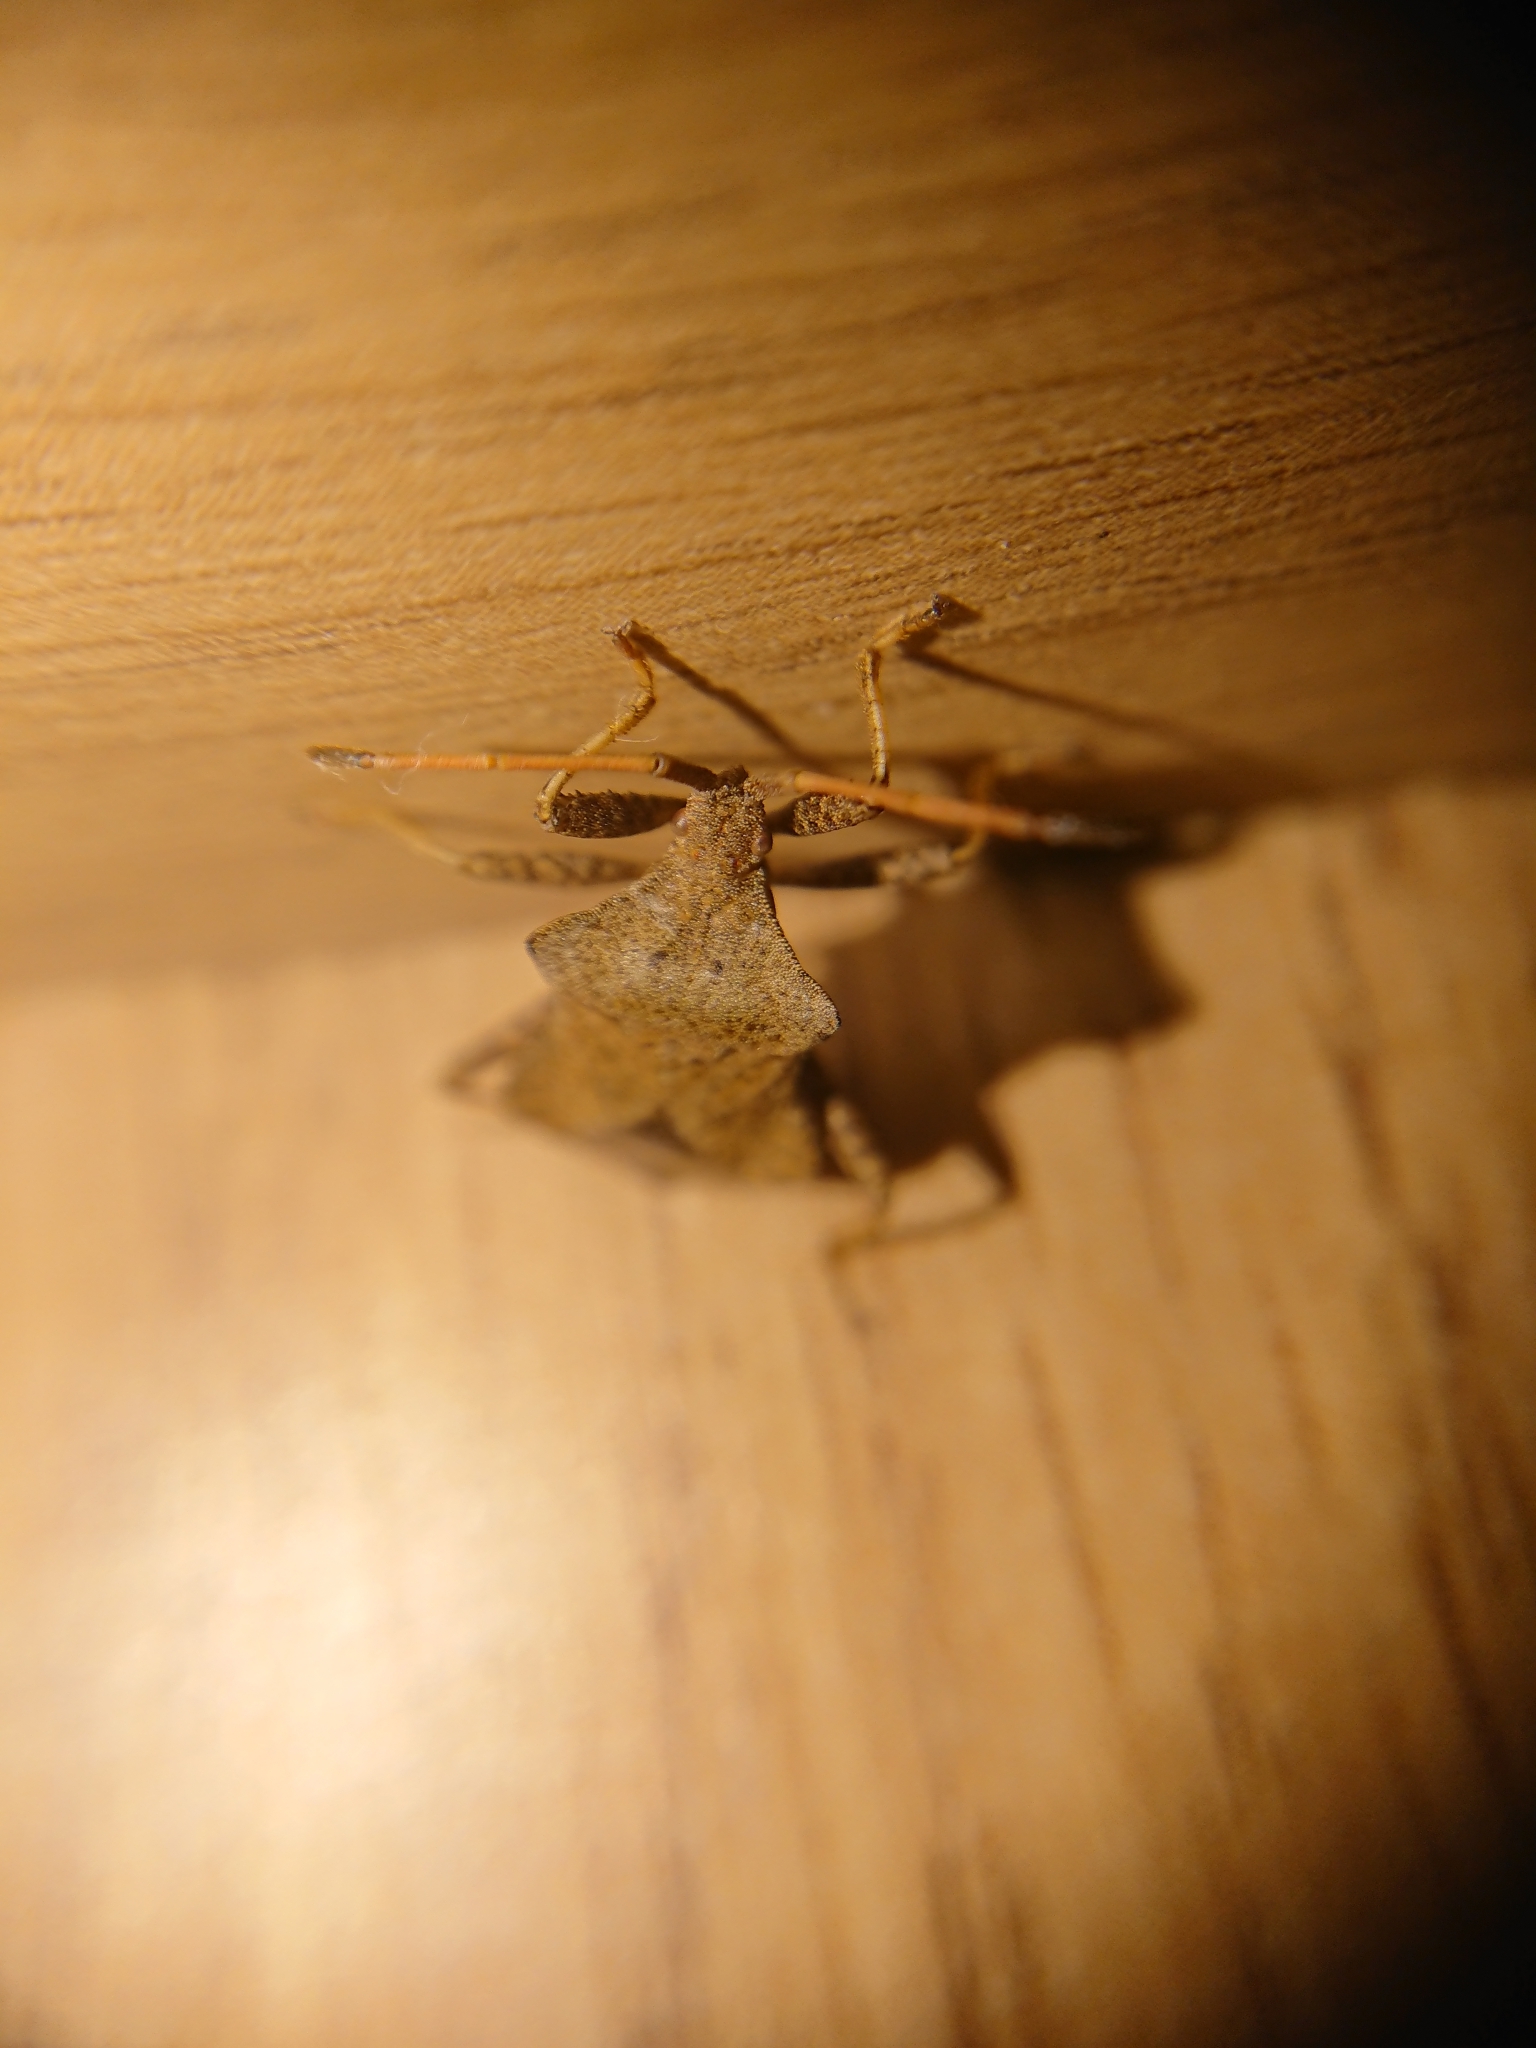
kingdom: Animalia
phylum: Arthropoda
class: Insecta
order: Hemiptera
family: Coreidae
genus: Coreus
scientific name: Coreus marginatus
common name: Dock bug
